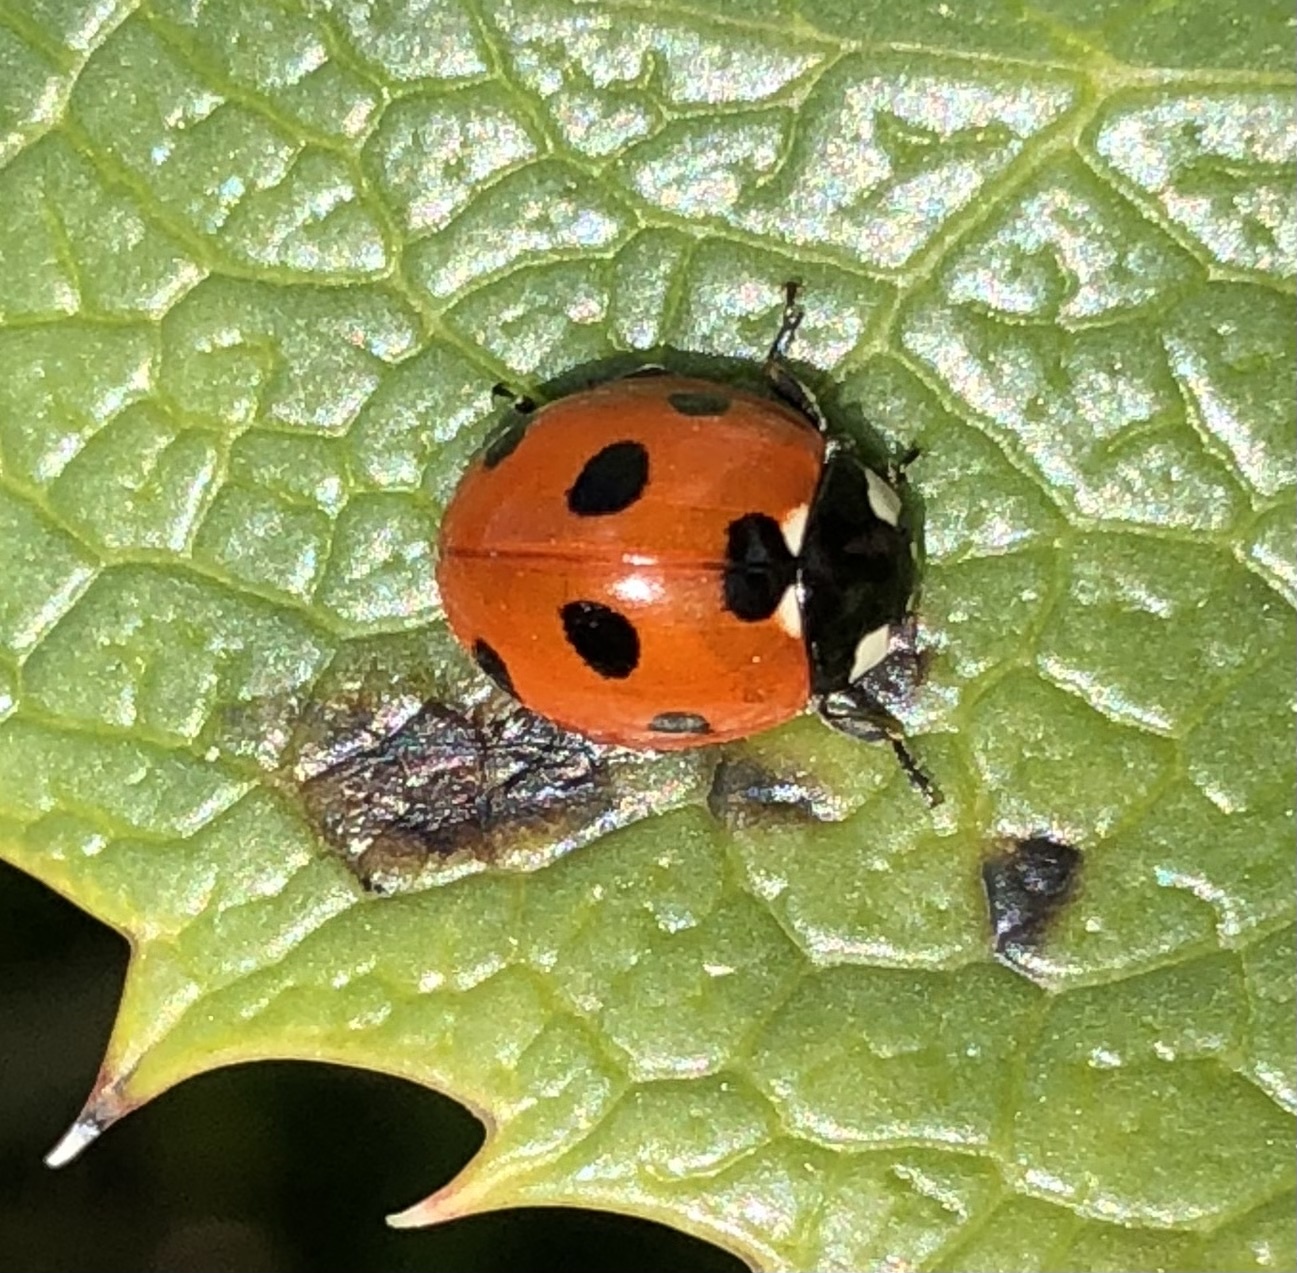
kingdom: Animalia
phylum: Arthropoda
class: Insecta
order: Coleoptera
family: Coccinellidae
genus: Coccinella
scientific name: Coccinella septempunctata
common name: Sevenspotted lady beetle
